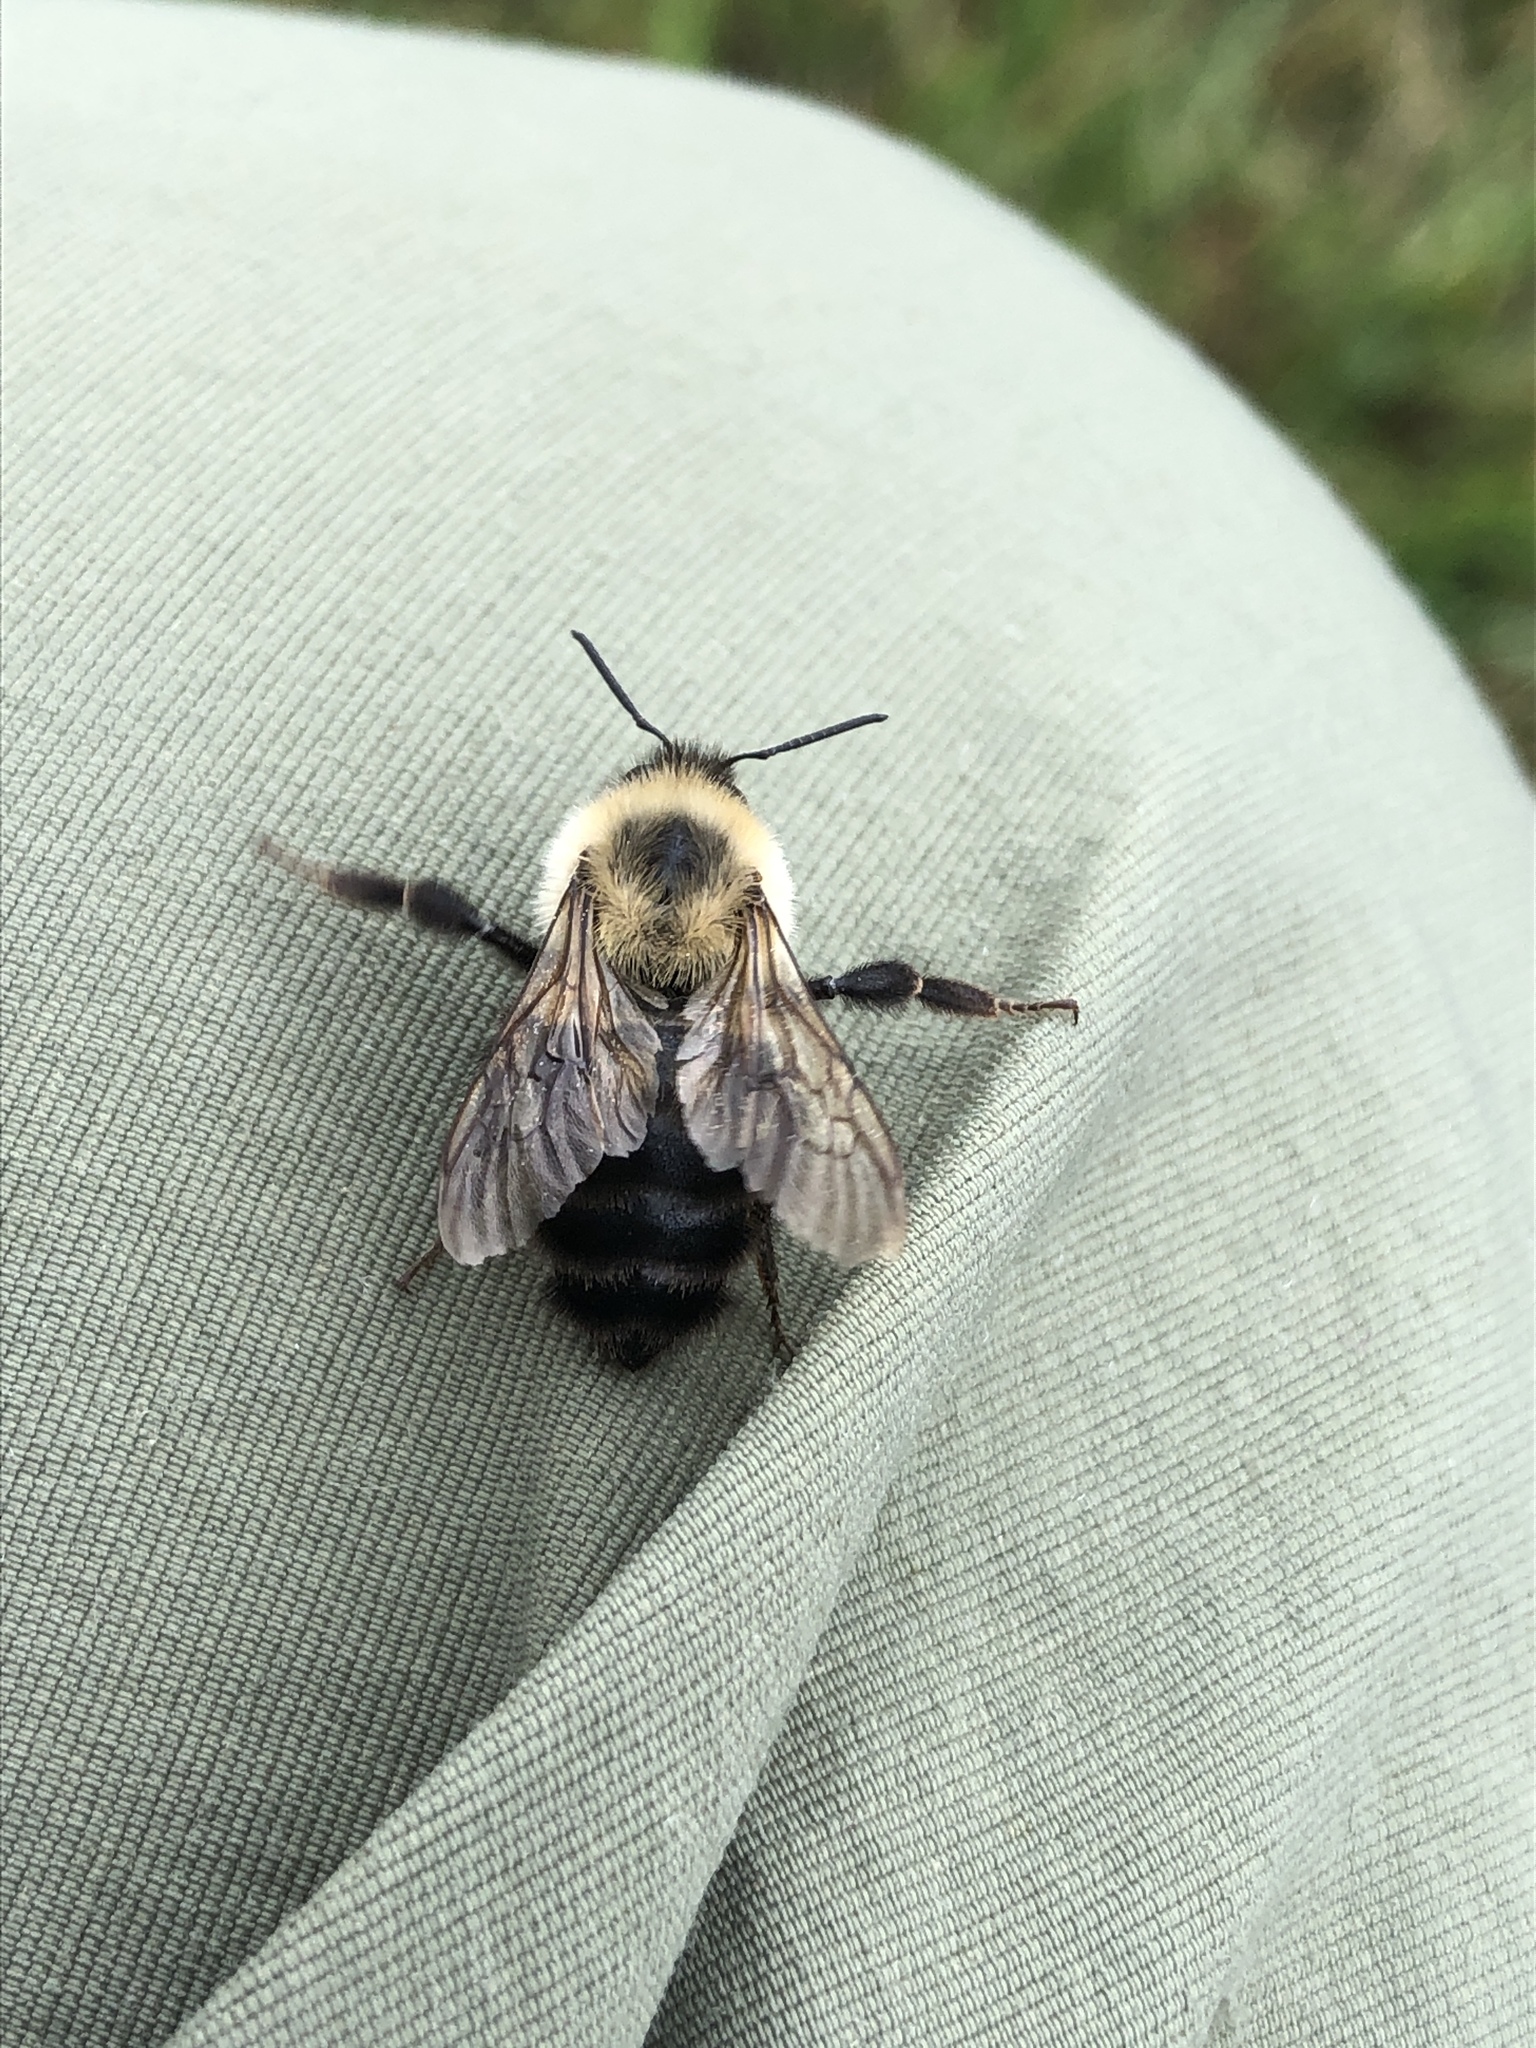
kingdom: Animalia
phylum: Arthropoda
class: Insecta
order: Hymenoptera
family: Apidae
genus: Bombus
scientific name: Bombus bimaculatus
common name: Two-spotted bumble bee
